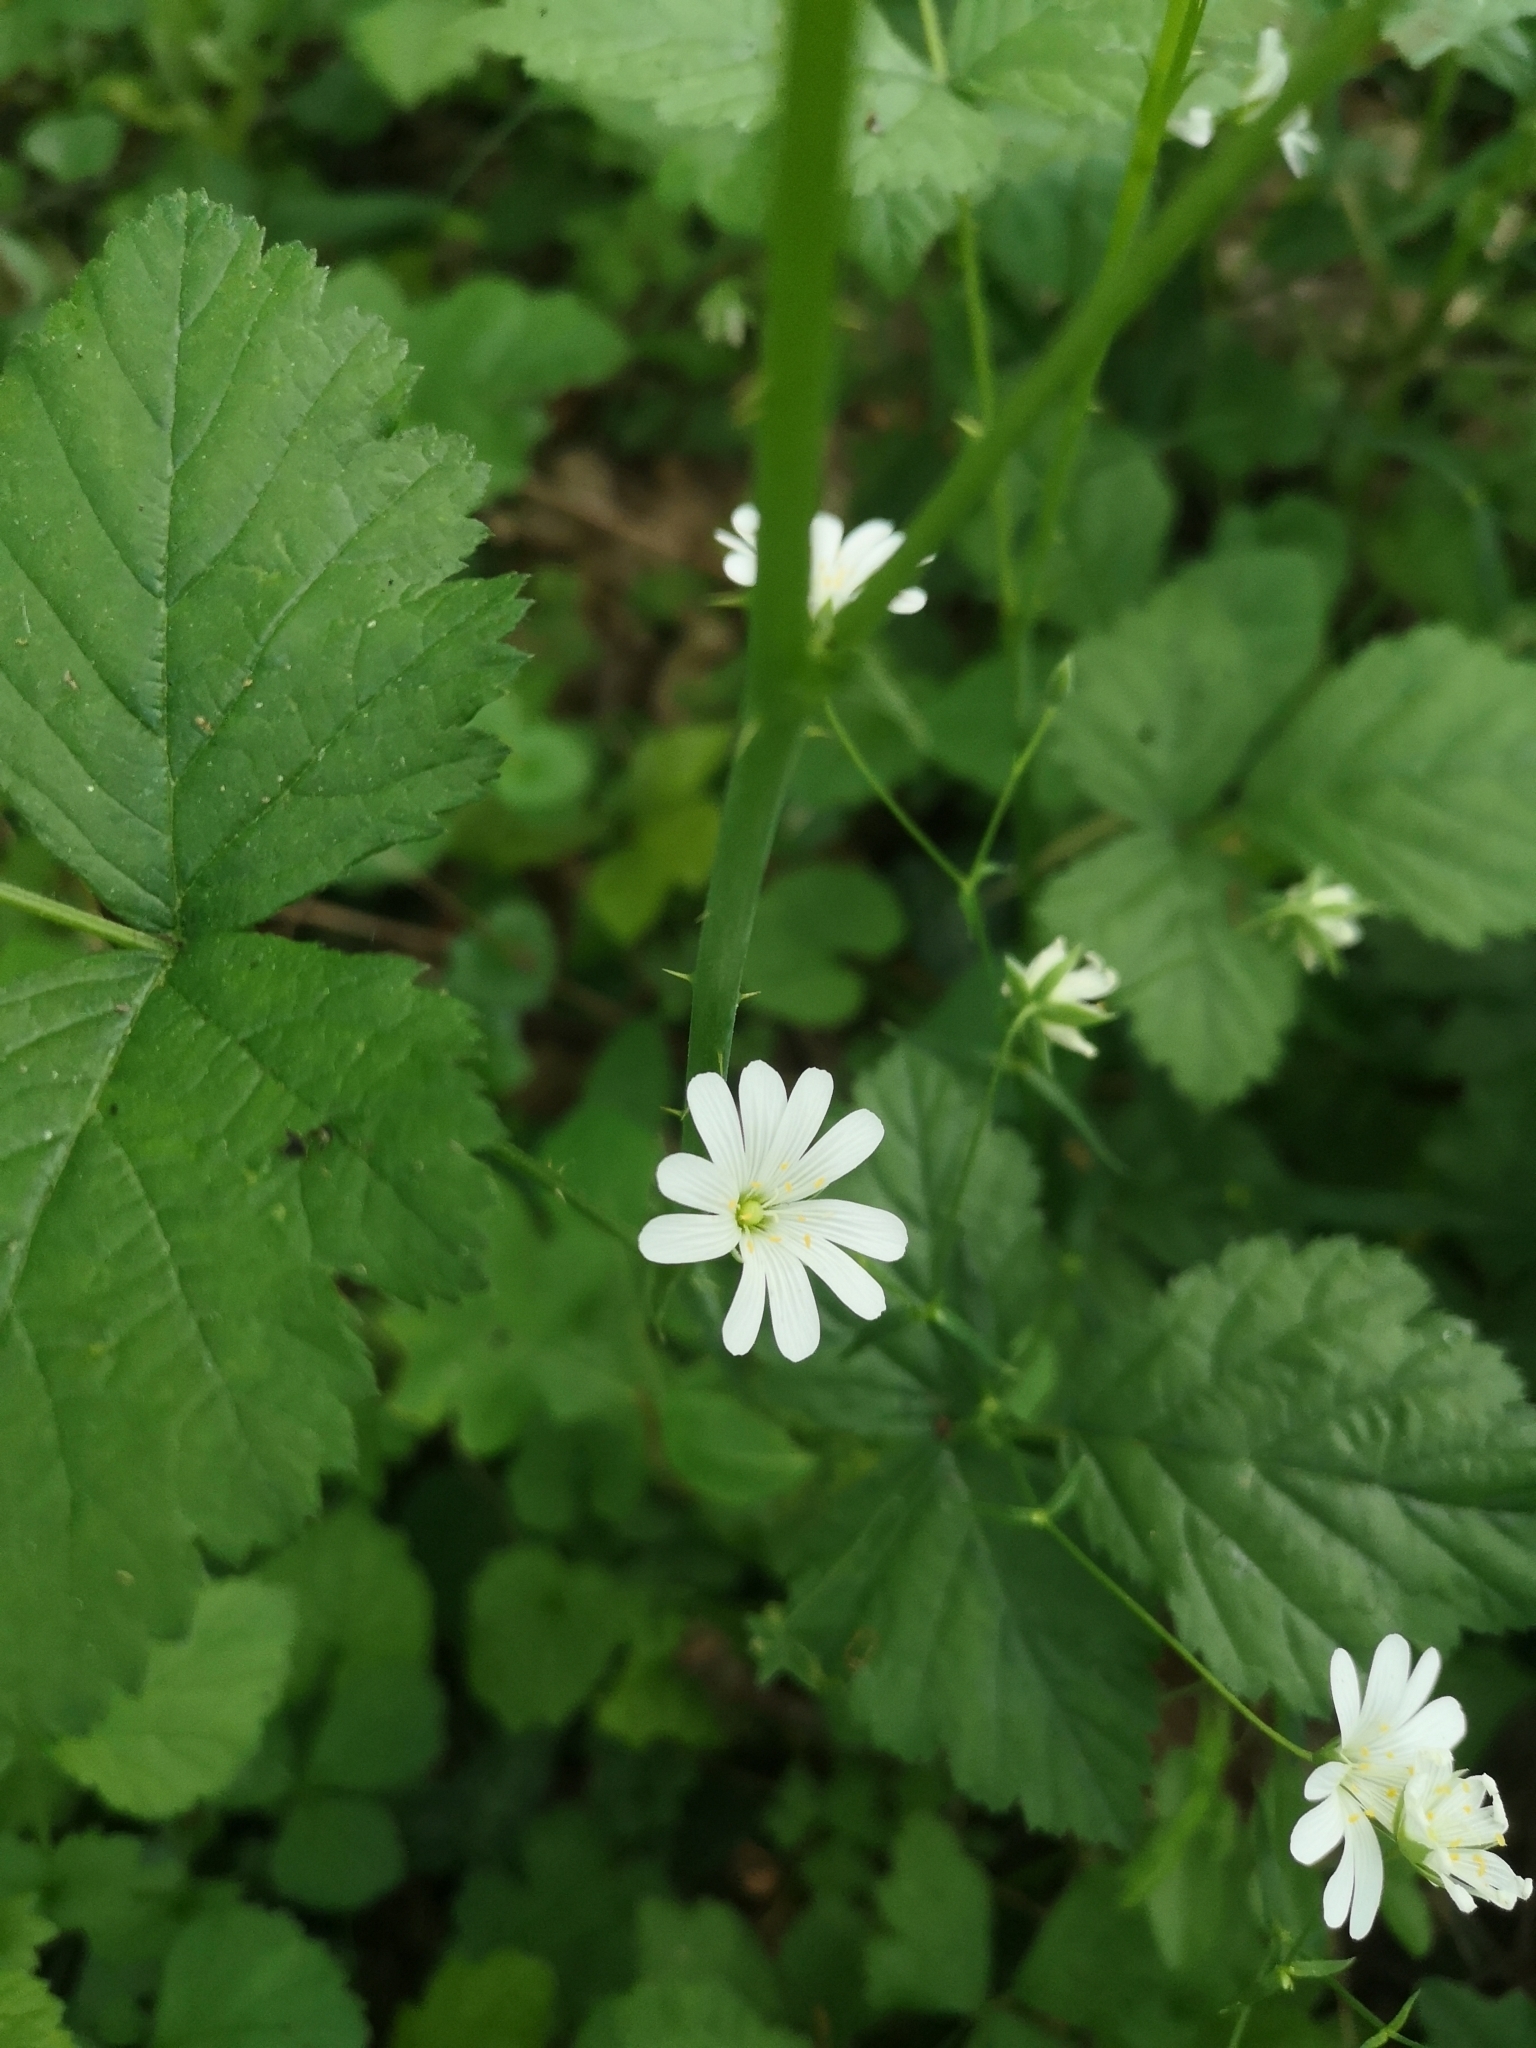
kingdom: Plantae
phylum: Tracheophyta
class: Magnoliopsida
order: Caryophyllales
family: Caryophyllaceae
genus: Rabelera
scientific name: Rabelera holostea
